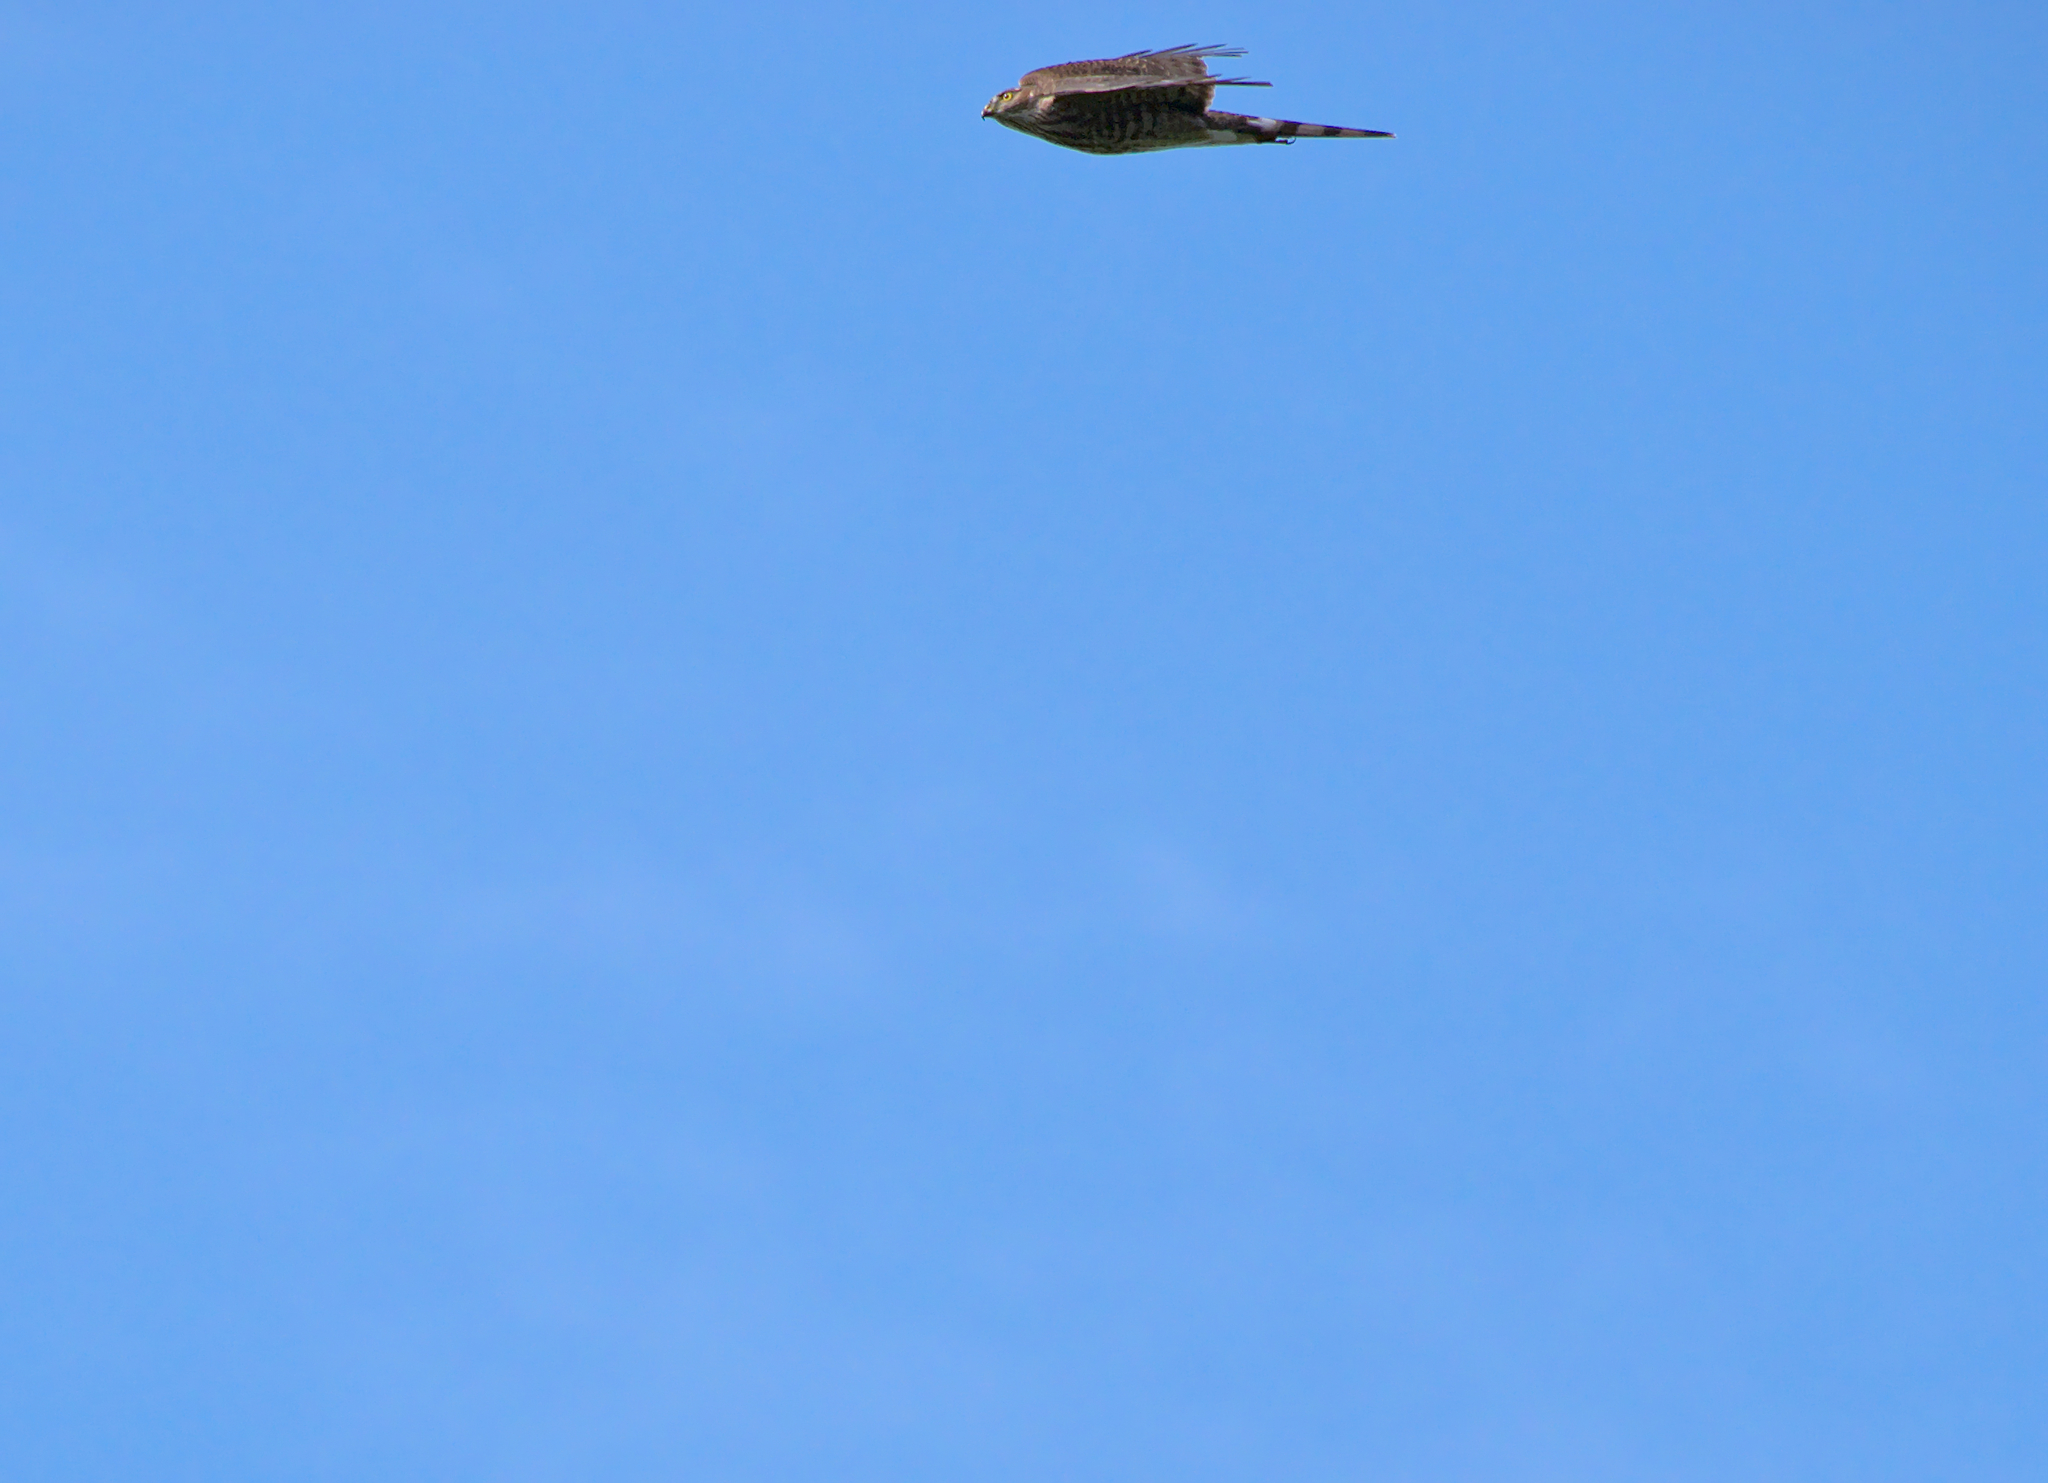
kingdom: Animalia
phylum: Chordata
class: Aves
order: Accipitriformes
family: Accipitridae
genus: Accipiter
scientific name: Accipiter striatus
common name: Sharp-shinned hawk
